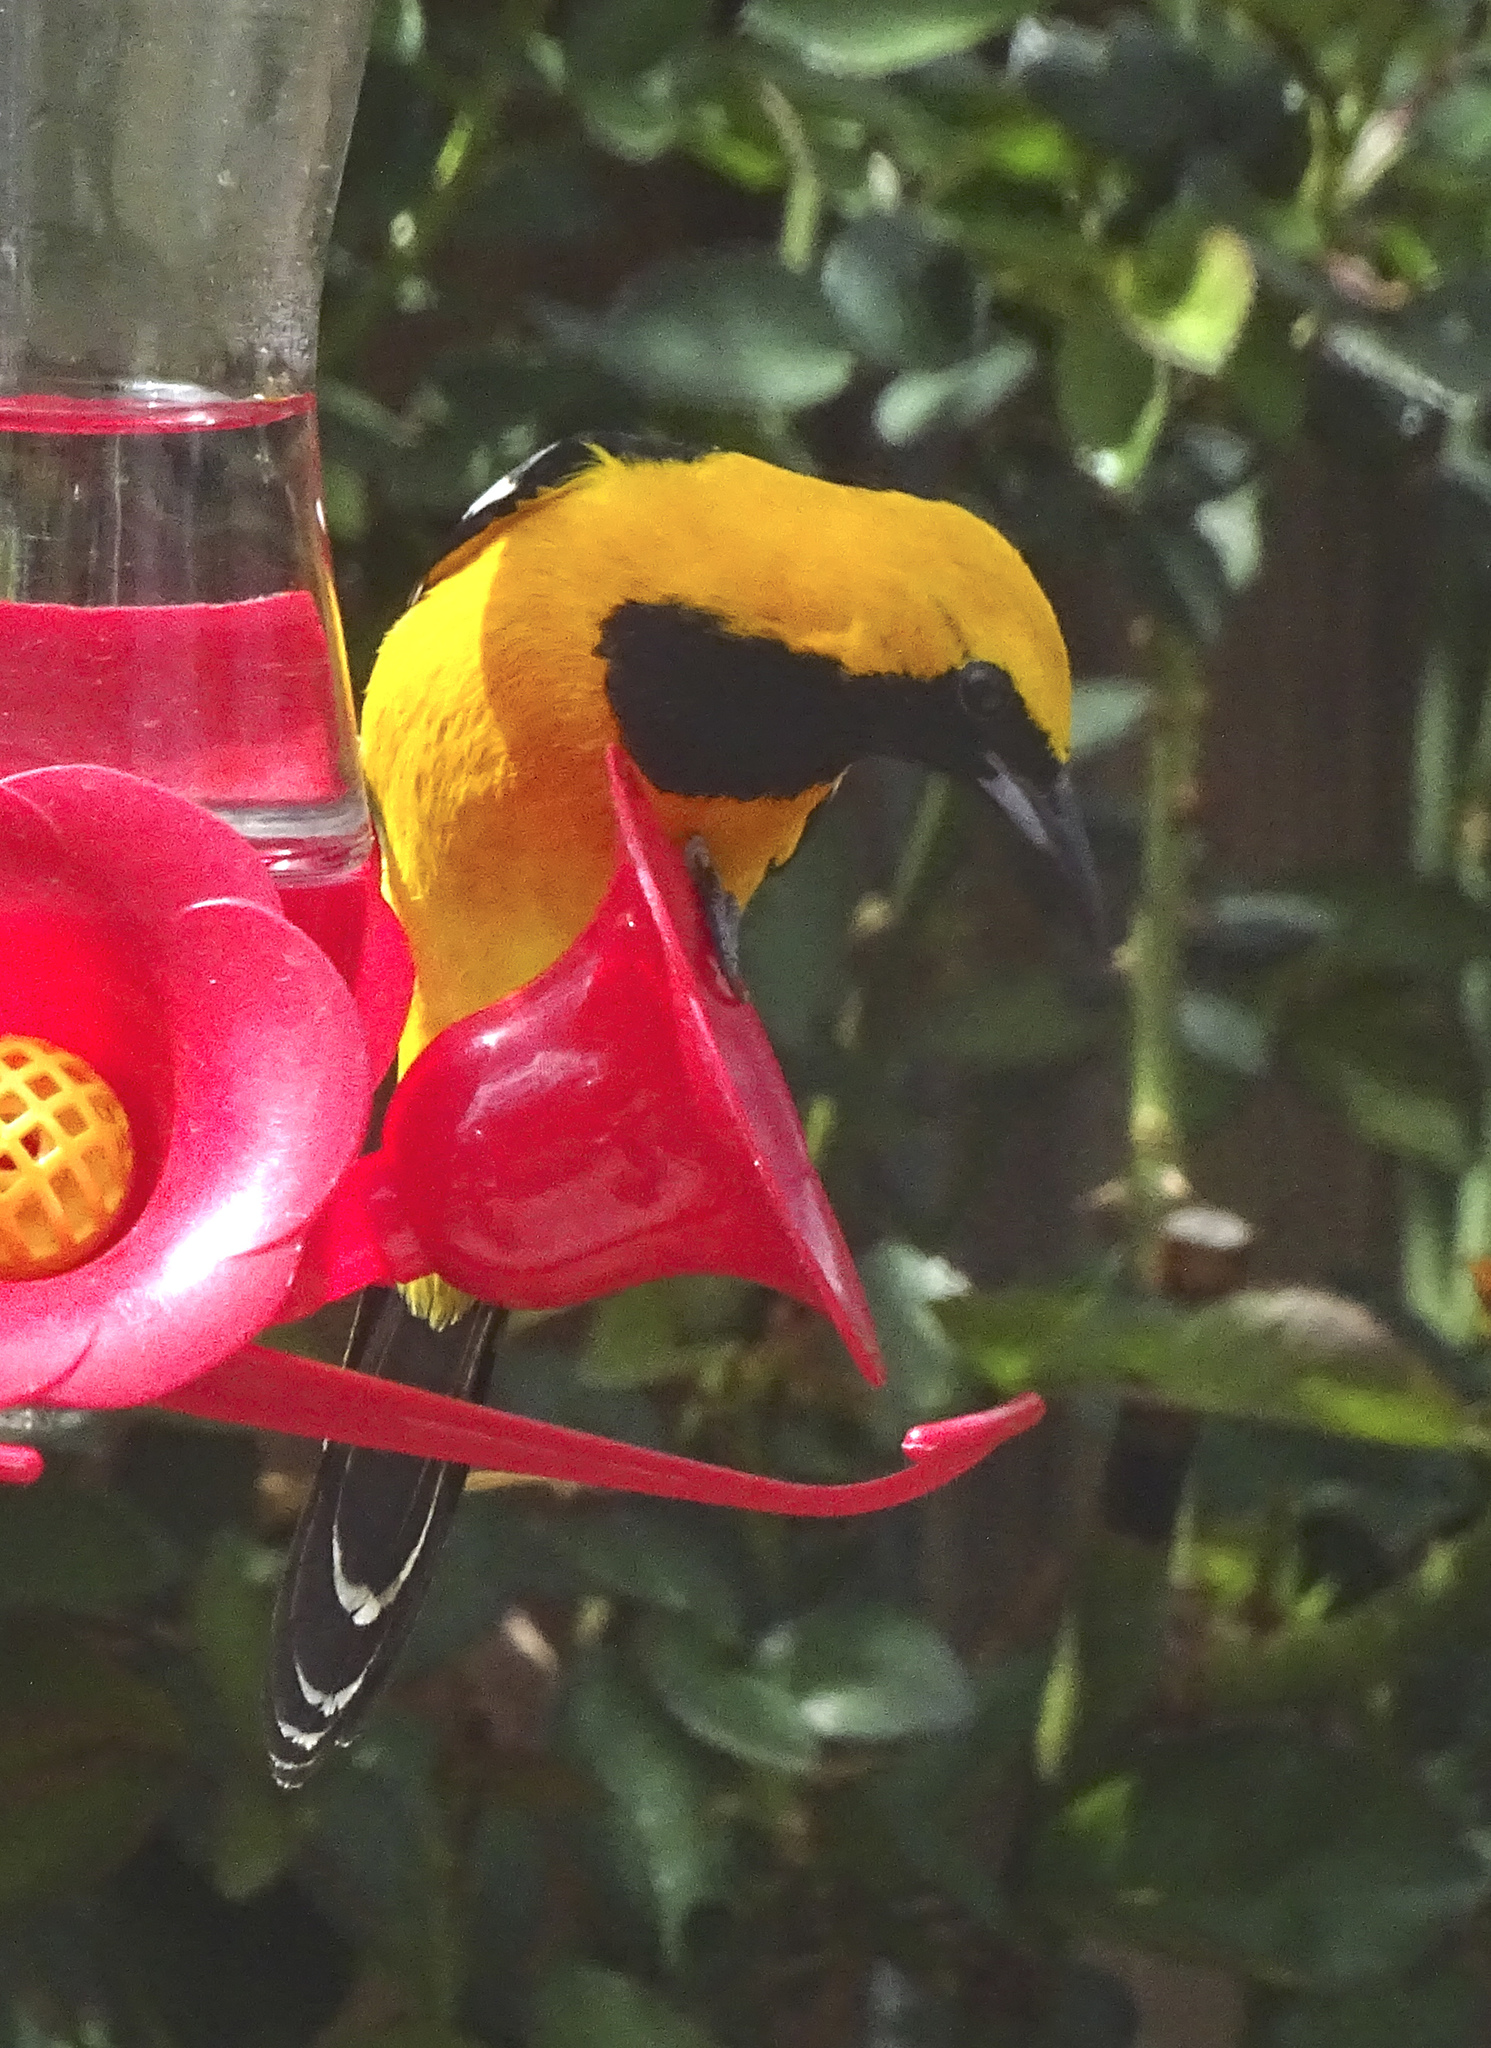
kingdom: Animalia
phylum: Chordata
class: Aves
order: Passeriformes
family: Icteridae
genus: Icterus
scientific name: Icterus cucullatus
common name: Hooded oriole
